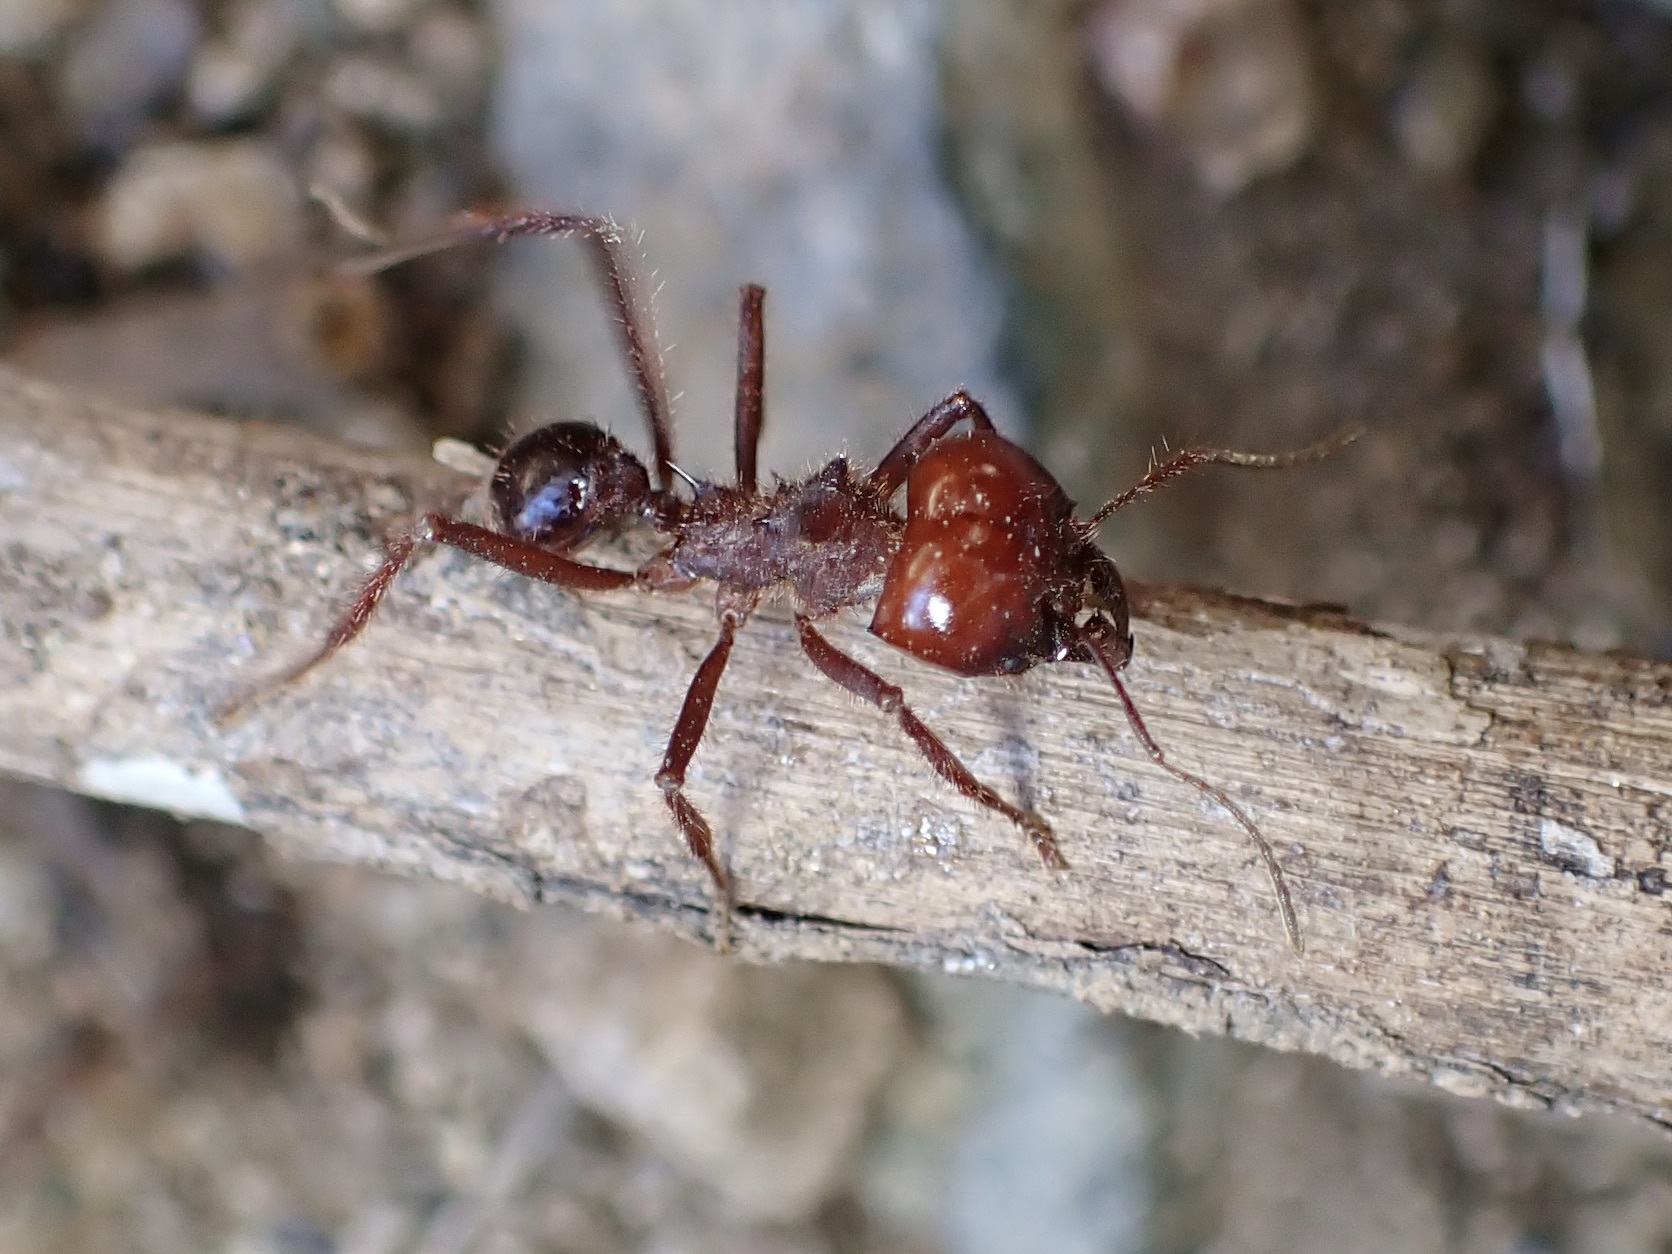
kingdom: Animalia
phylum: Arthropoda
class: Insecta
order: Hymenoptera
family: Formicidae
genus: Atta
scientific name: Atta mexicana
